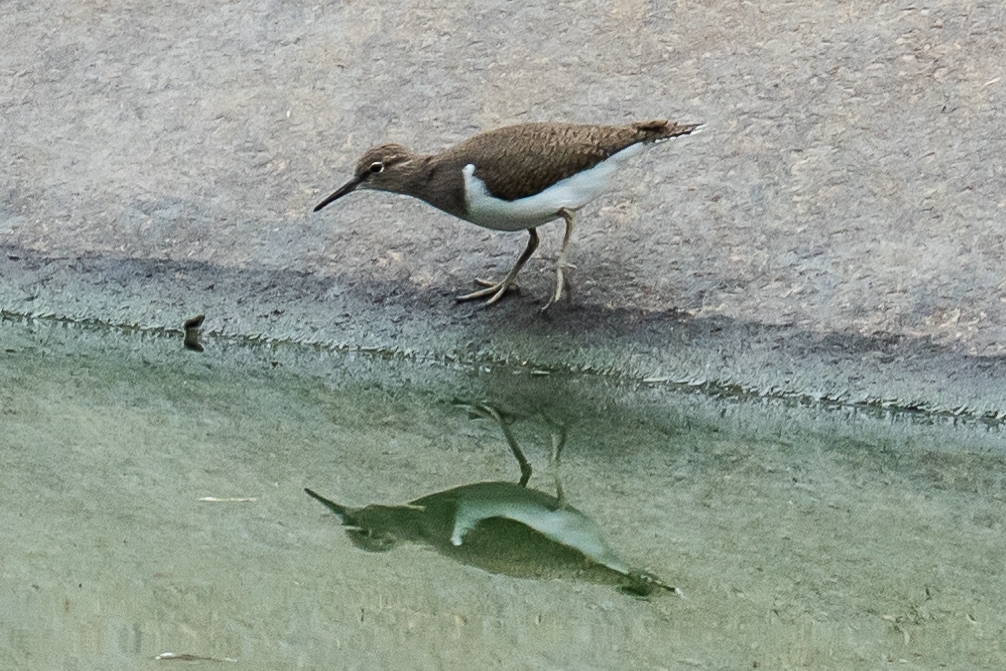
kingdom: Animalia
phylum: Chordata
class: Aves
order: Charadriiformes
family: Scolopacidae
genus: Actitis
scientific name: Actitis hypoleucos
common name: Common sandpiper
